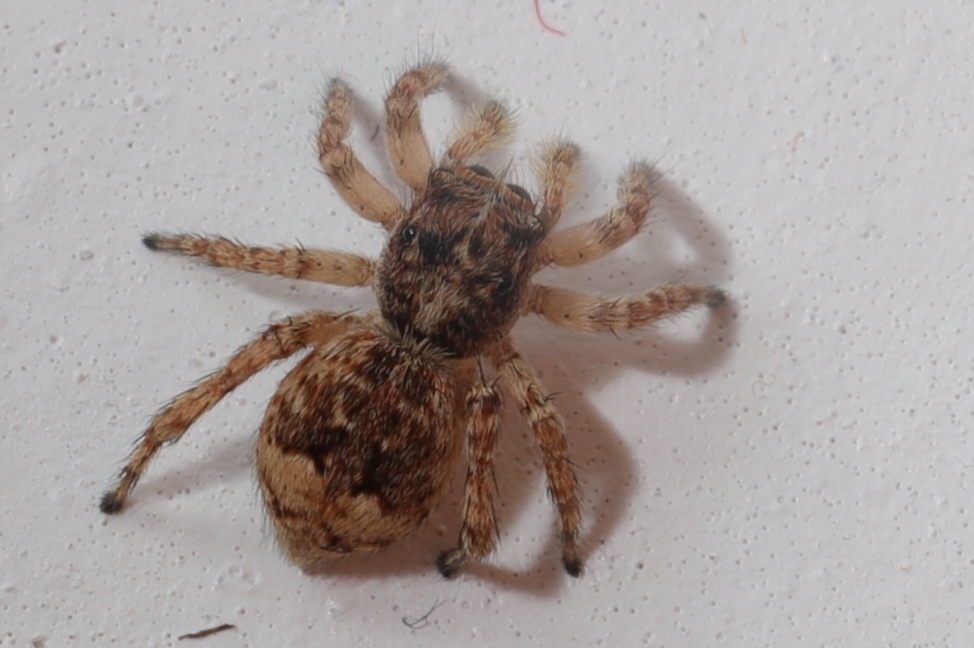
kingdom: Animalia
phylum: Arthropoda
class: Arachnida
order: Araneae
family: Salticidae
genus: Attulus
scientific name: Attulus fasciger
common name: Asiatic wall jumping spider
